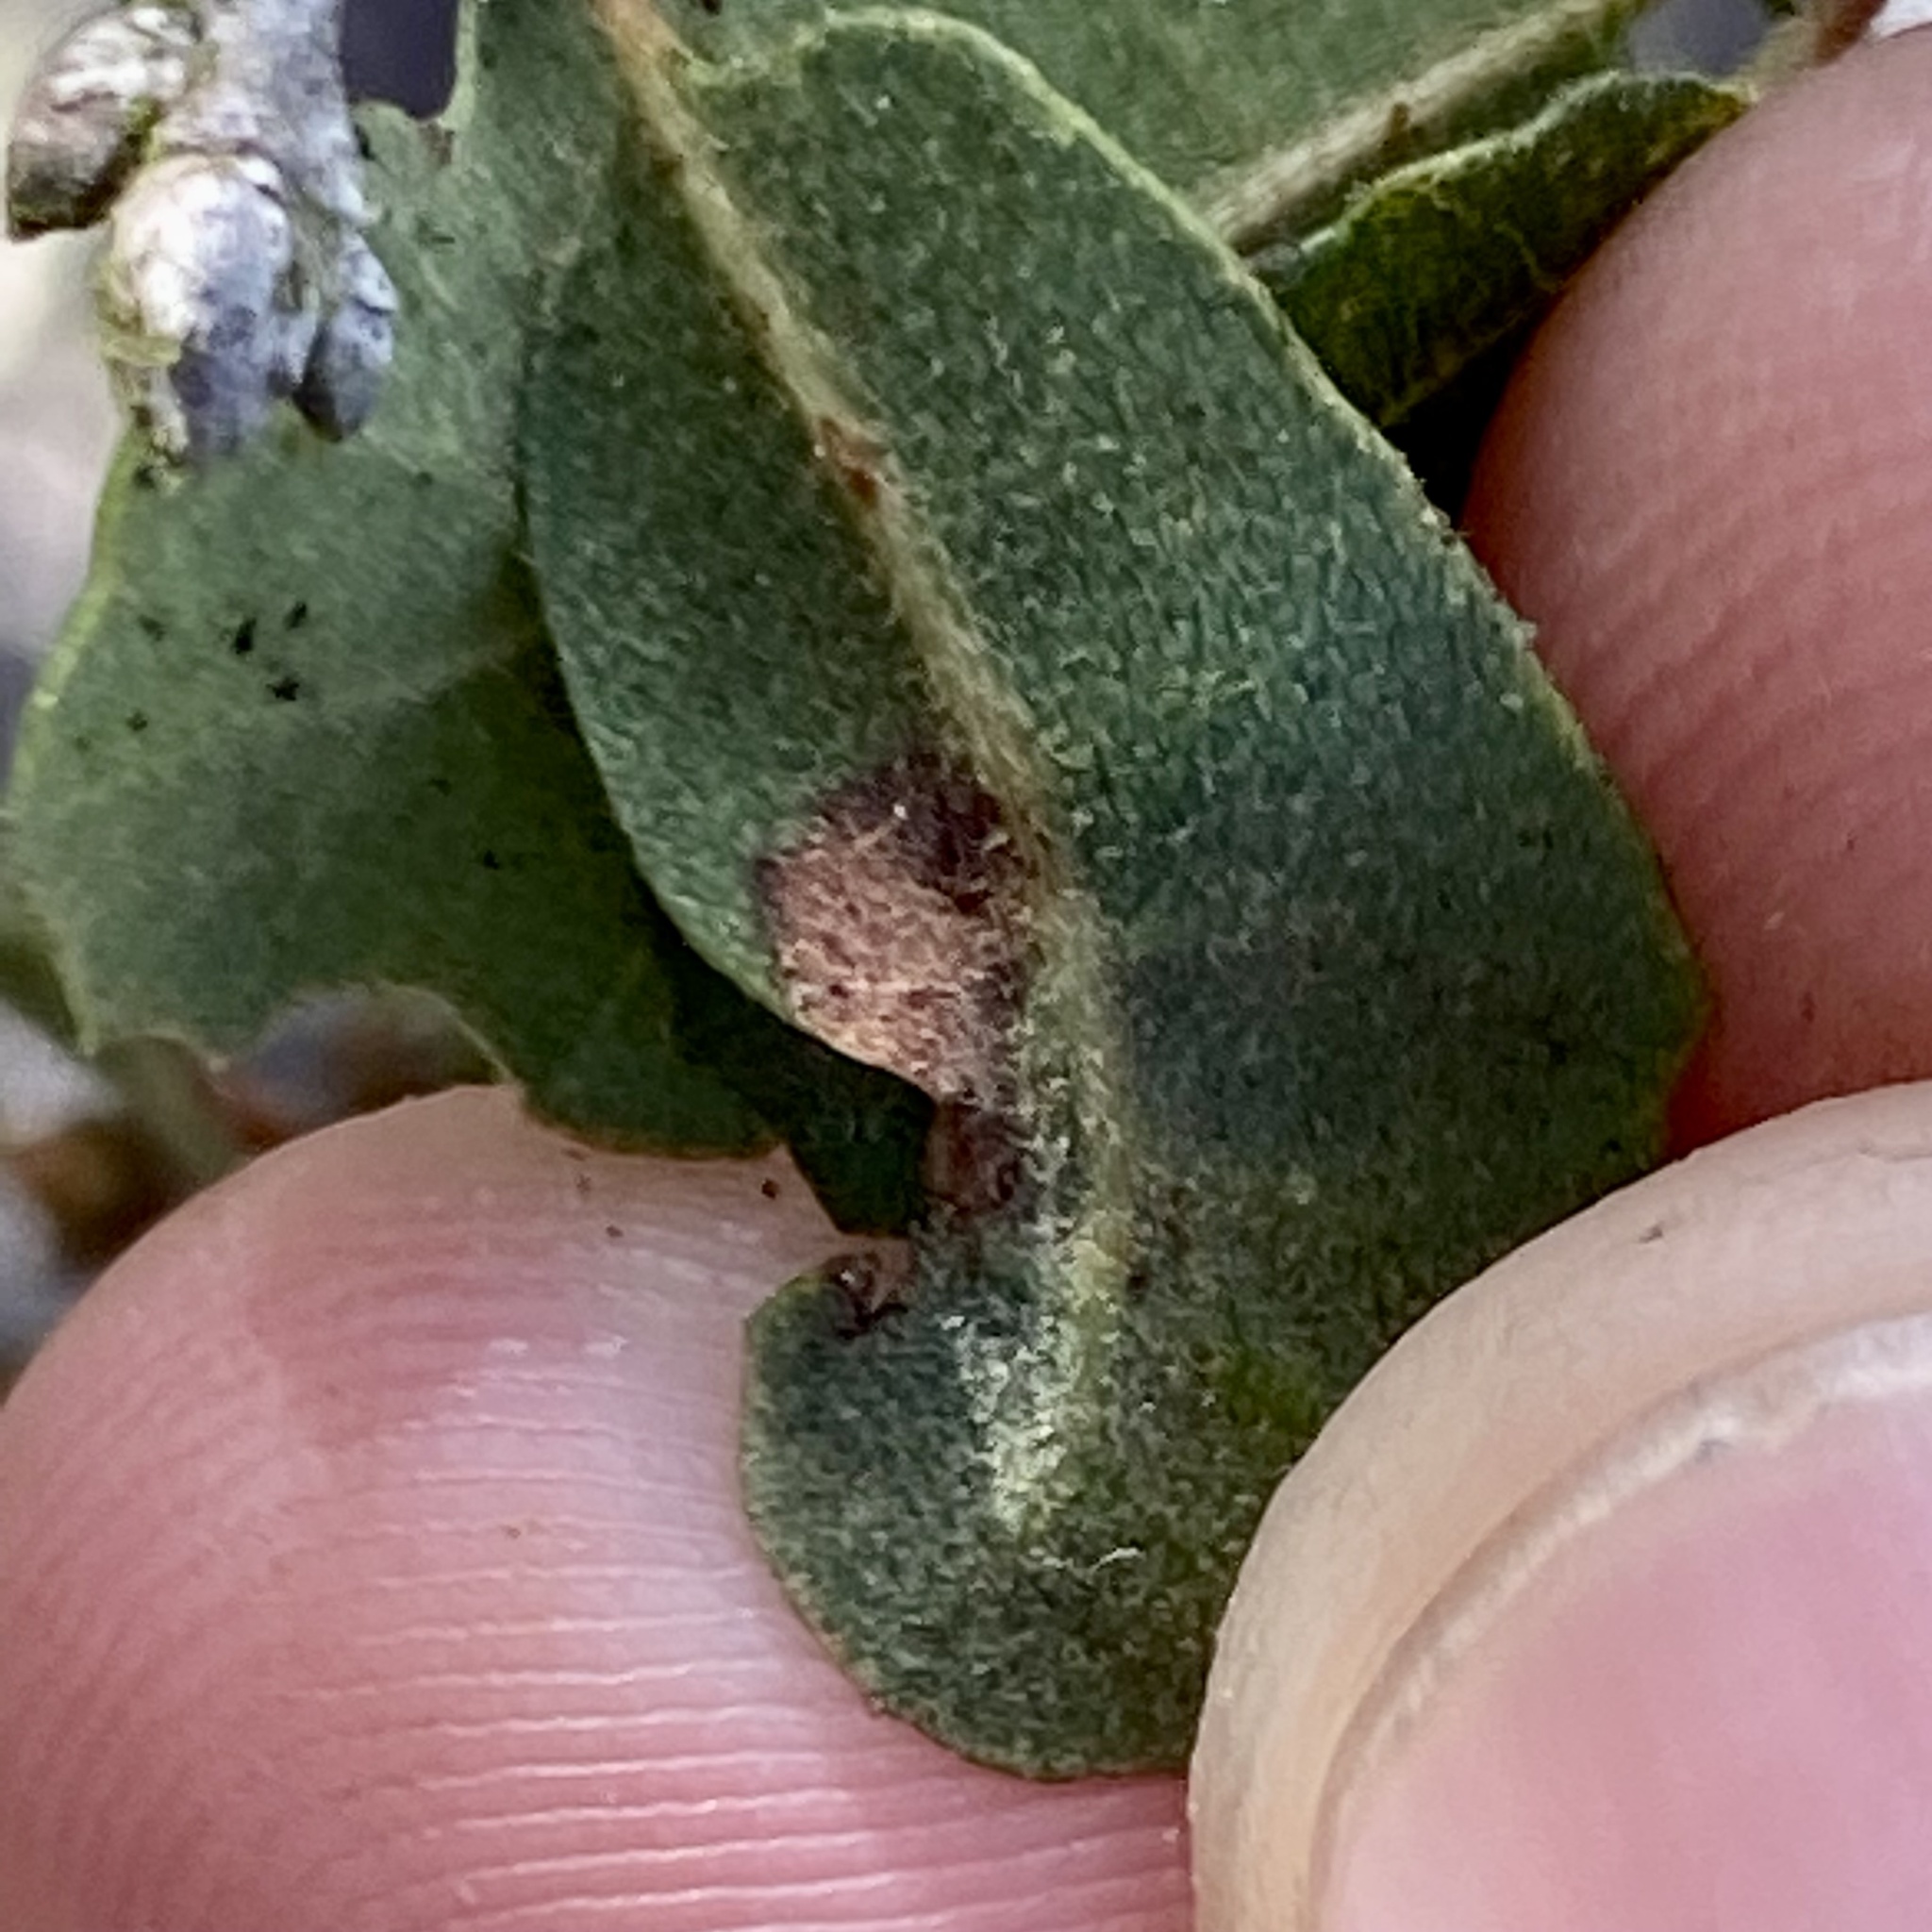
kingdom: Animalia
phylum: Arthropoda
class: Insecta
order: Hymenoptera
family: Cynipidae
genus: Neuroterus
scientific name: Neuroterus saltarius
